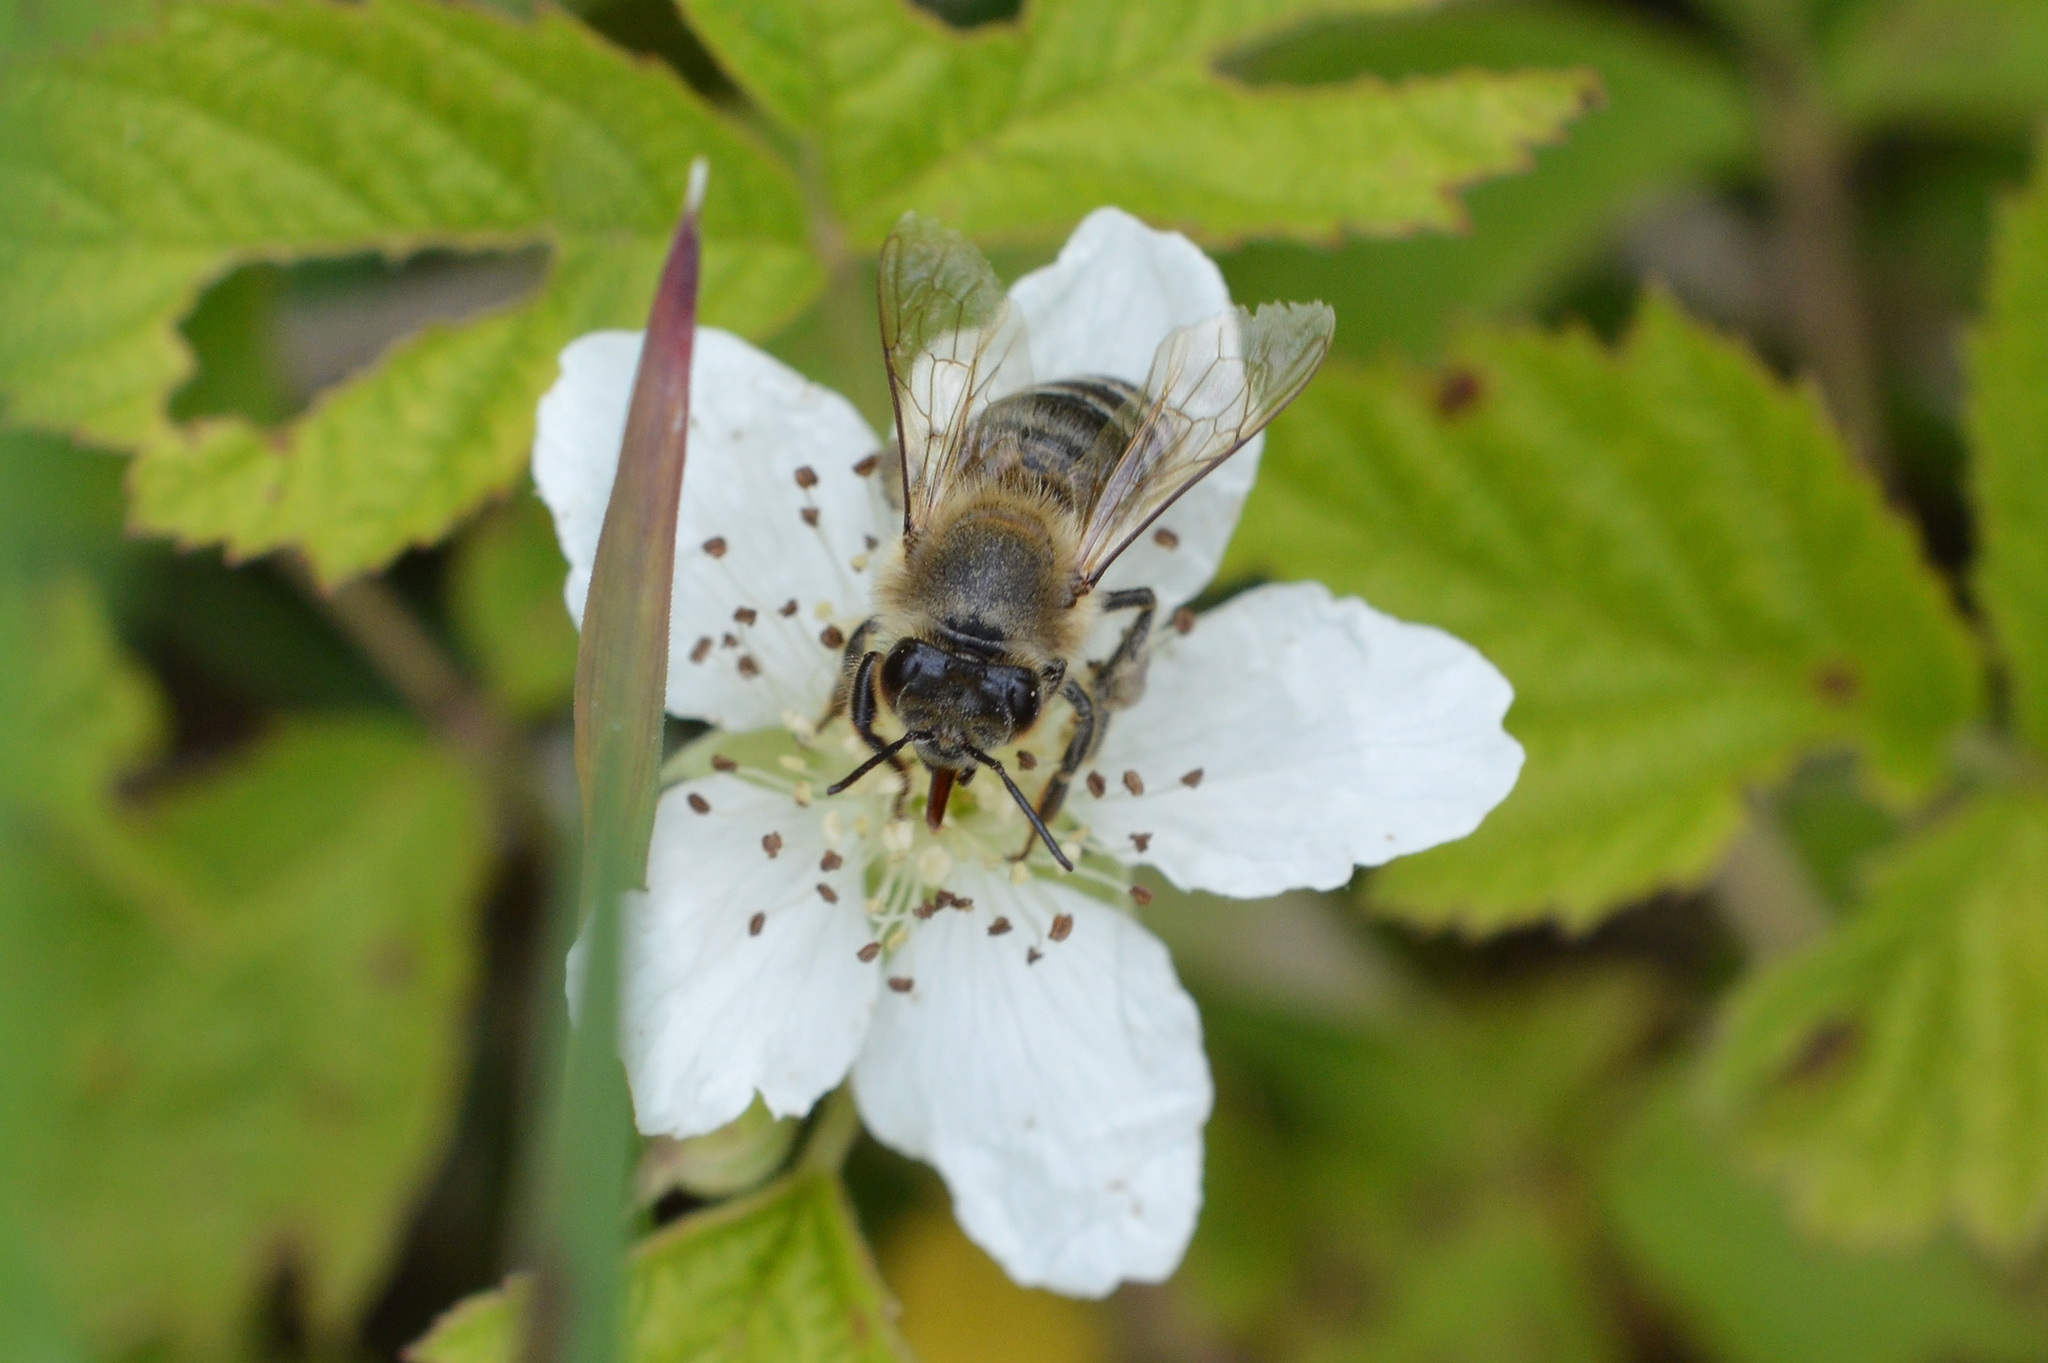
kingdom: Animalia
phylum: Arthropoda
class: Insecta
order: Hymenoptera
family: Apidae
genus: Apis
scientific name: Apis mellifera
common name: Honey bee
